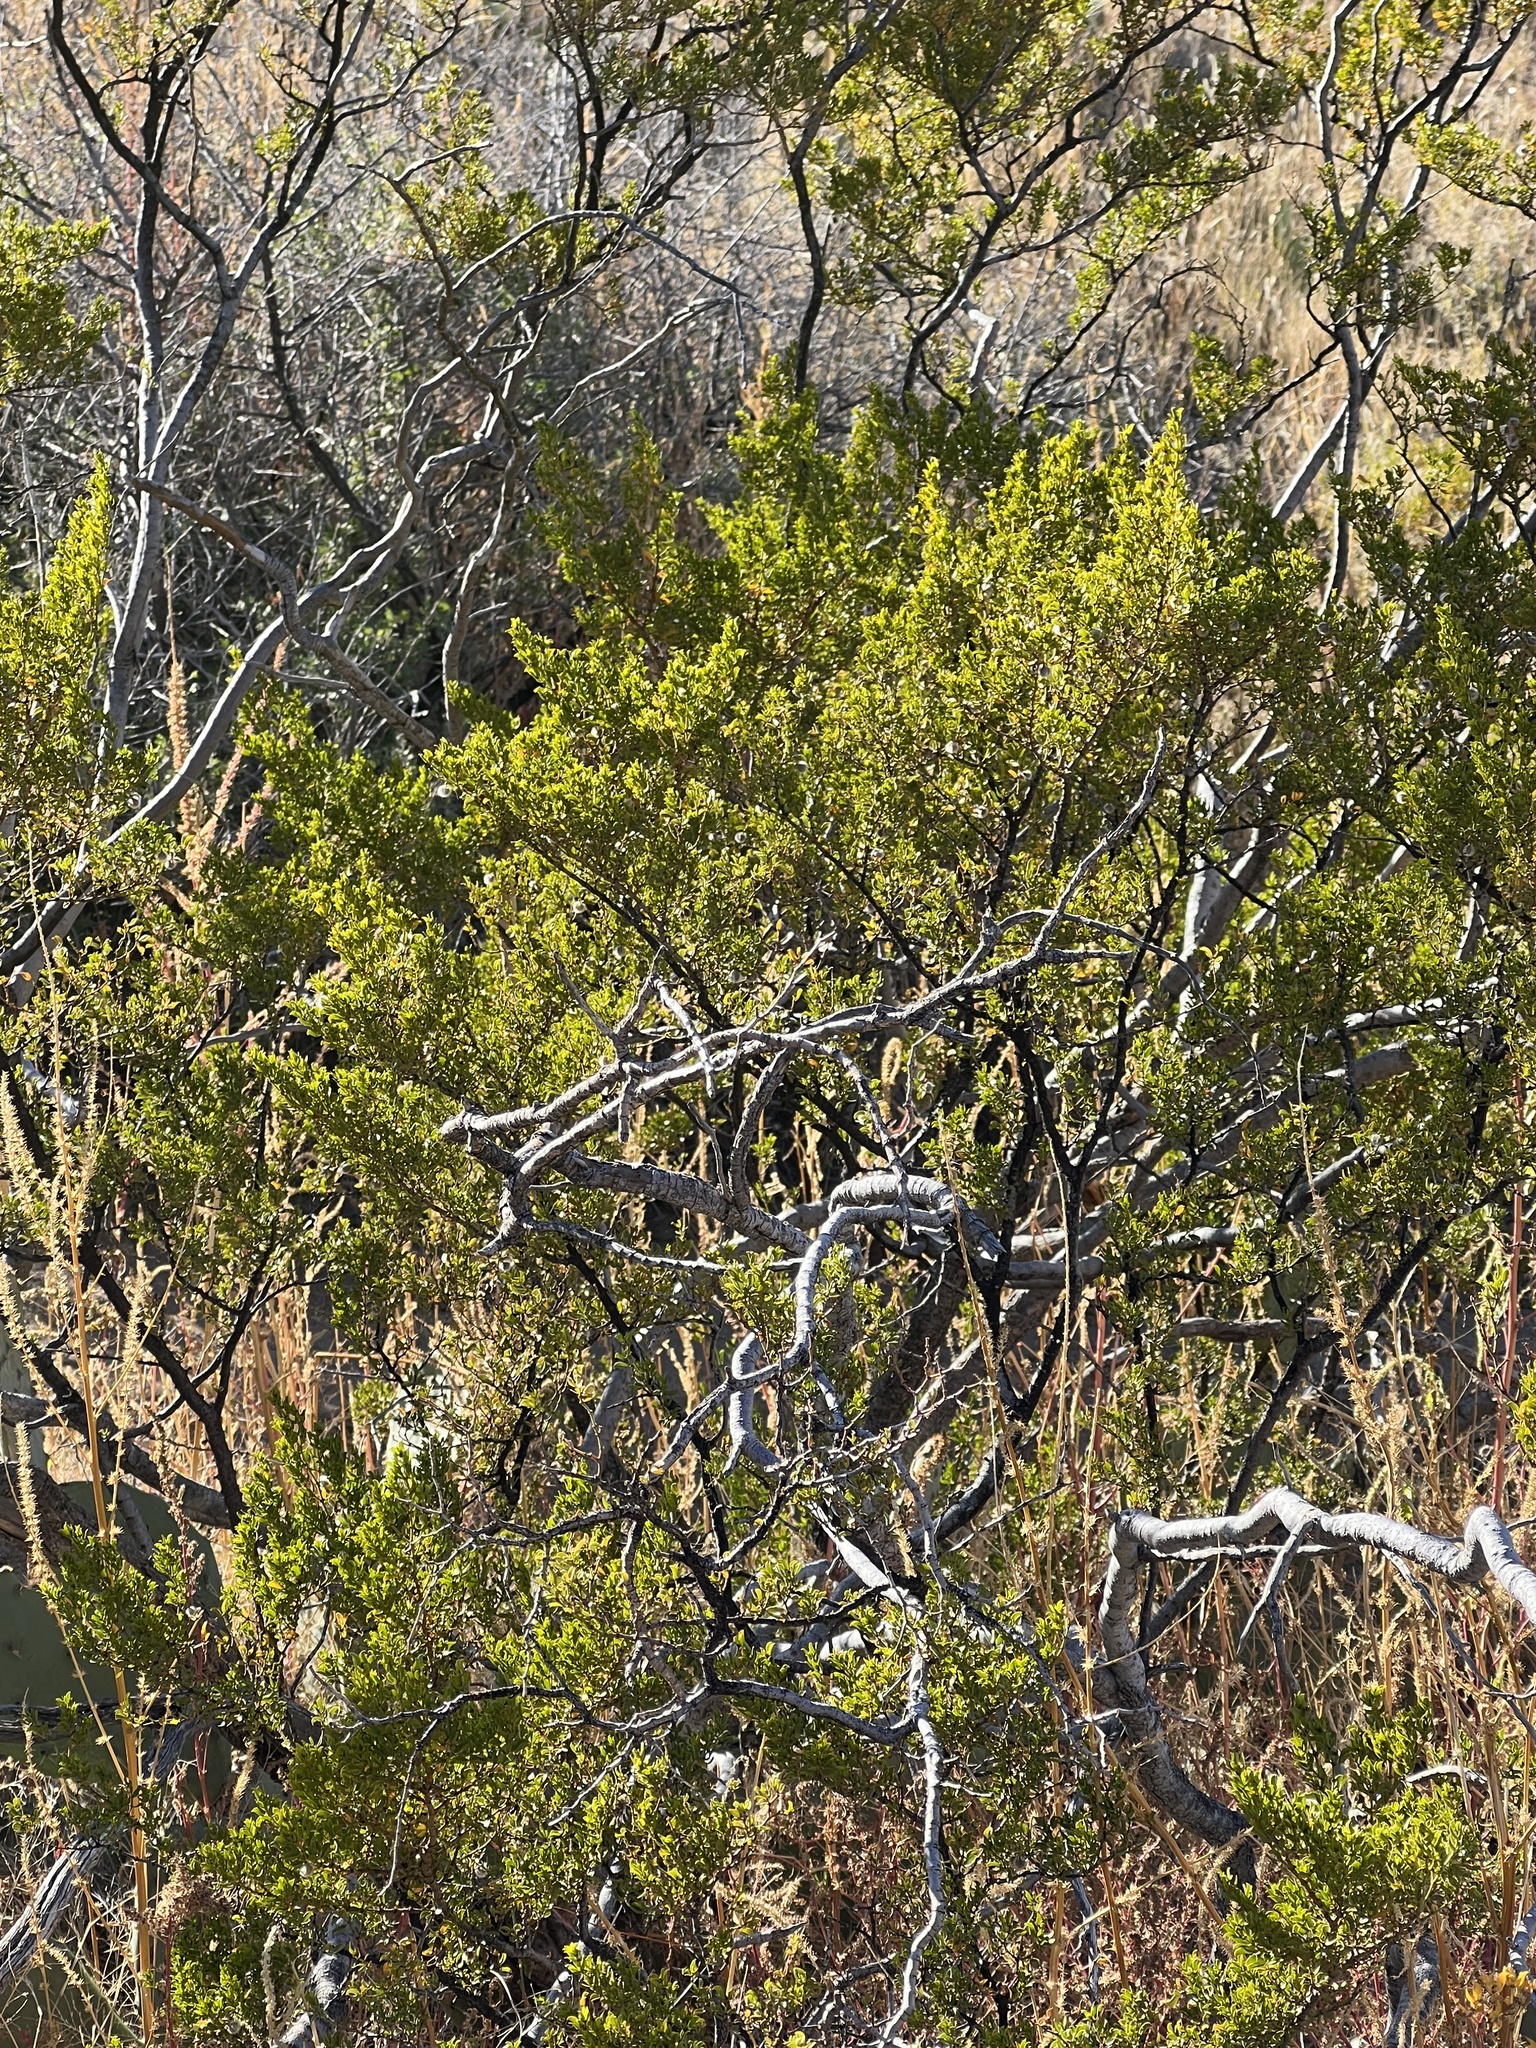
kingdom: Plantae
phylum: Tracheophyta
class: Magnoliopsida
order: Zygophyllales
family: Zygophyllaceae
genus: Larrea
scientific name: Larrea tridentata
